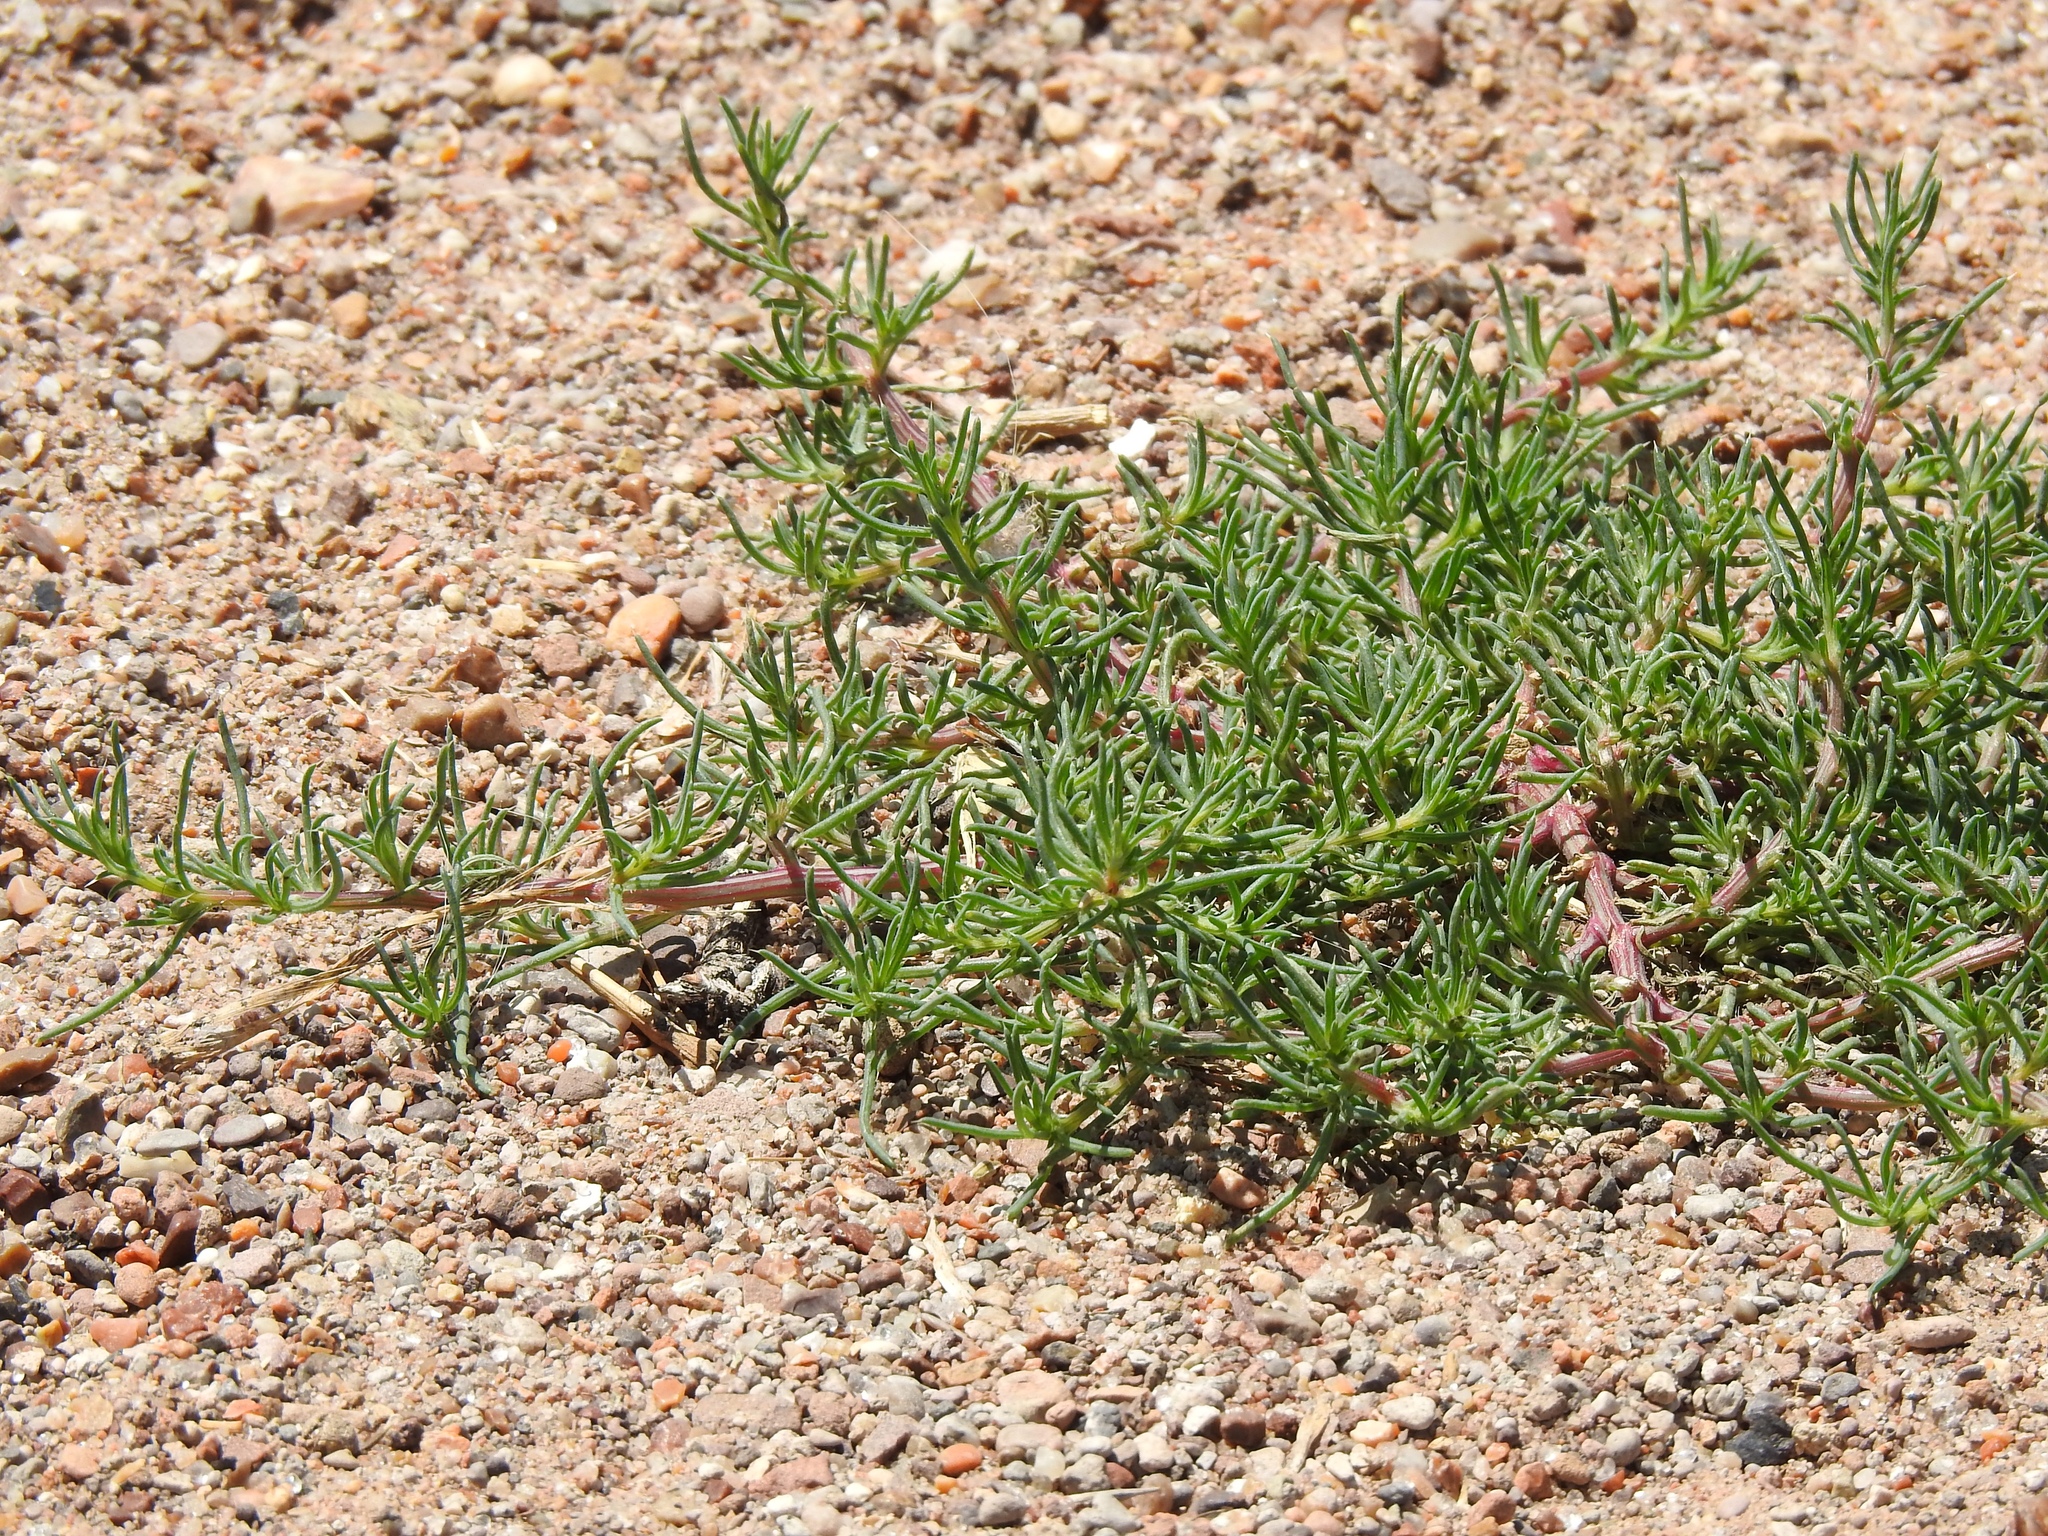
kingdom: Plantae
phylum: Tracheophyta
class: Magnoliopsida
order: Caryophyllales
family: Amaranthaceae
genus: Salsola
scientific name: Salsola tragus
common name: Prickly russian thistle
